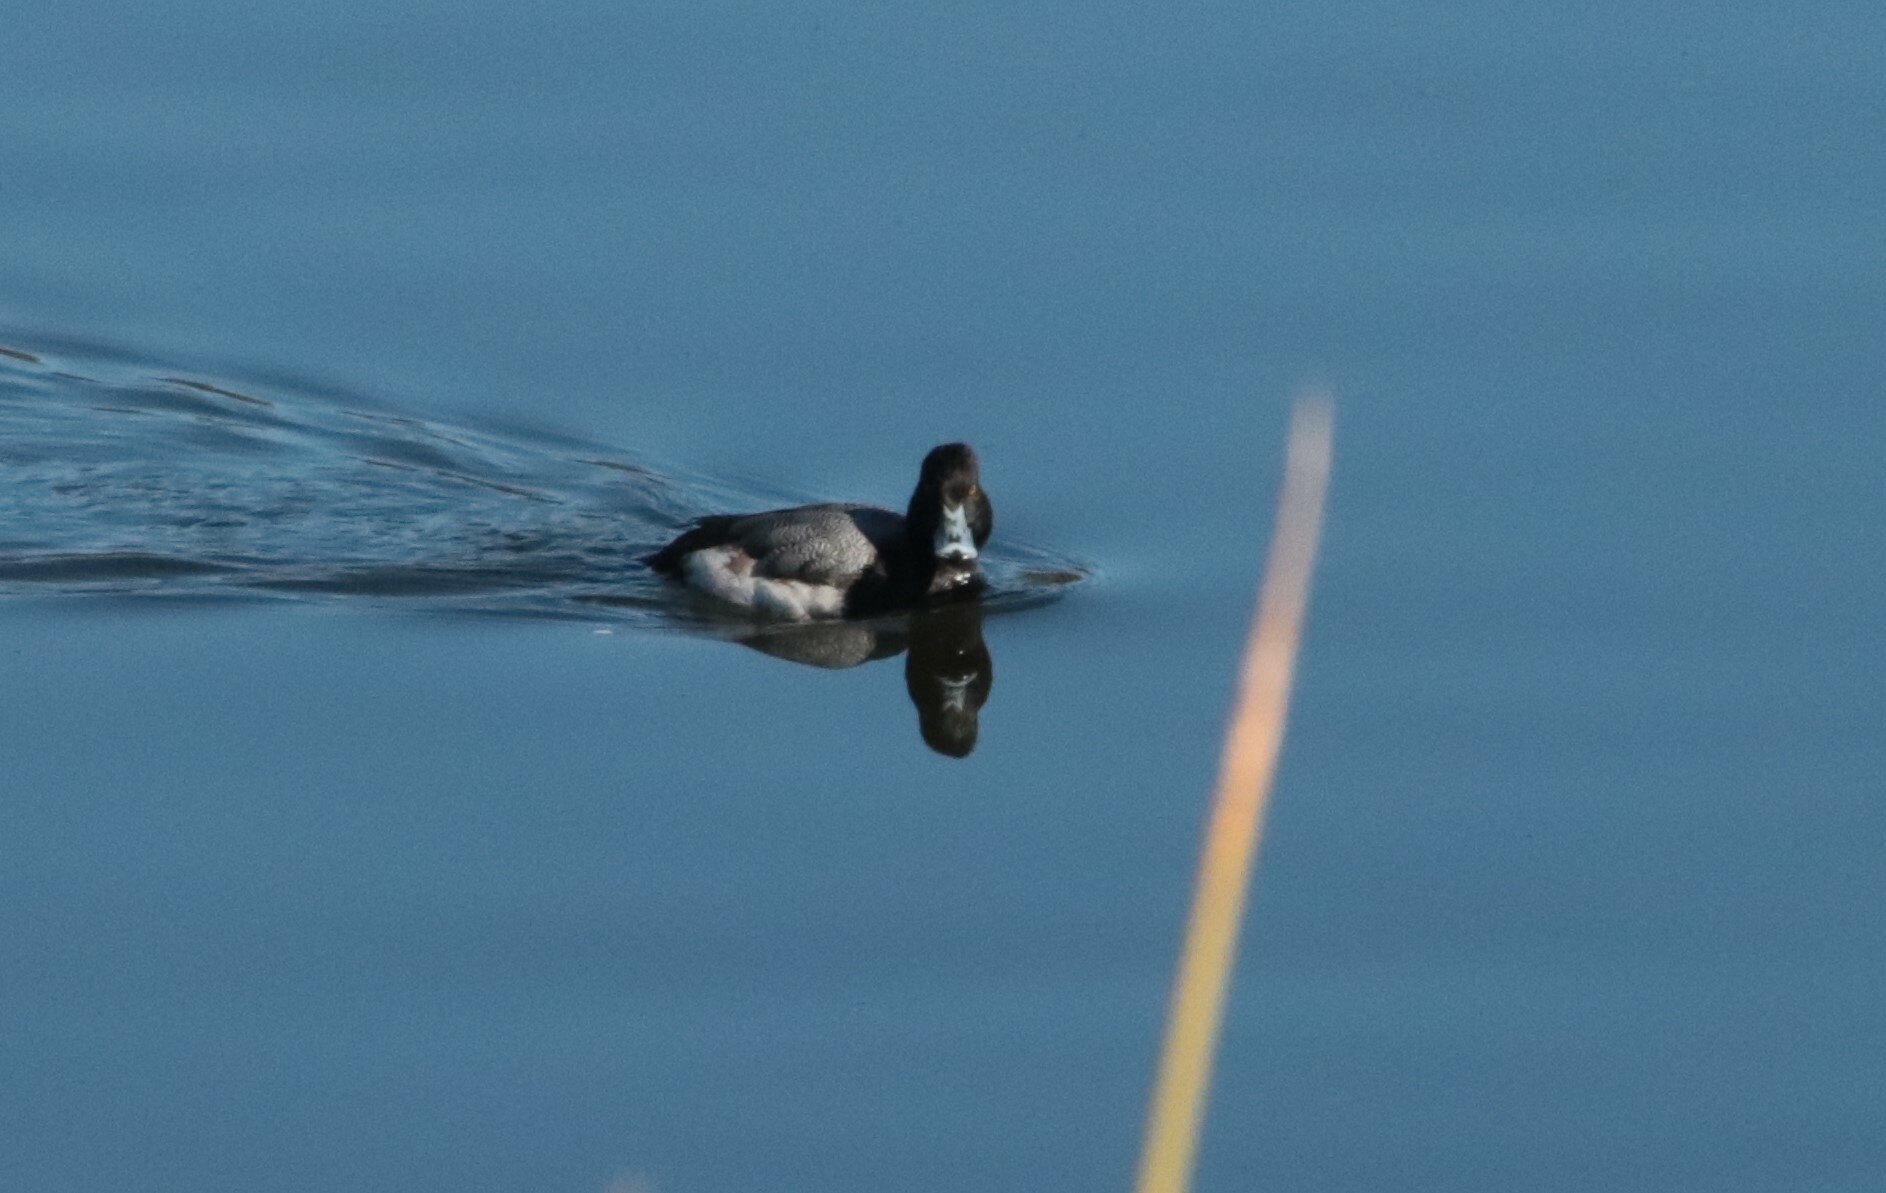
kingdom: Animalia
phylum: Chordata
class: Aves
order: Anseriformes
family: Anatidae
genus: Aythya
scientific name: Aythya affinis
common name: Lesser scaup
